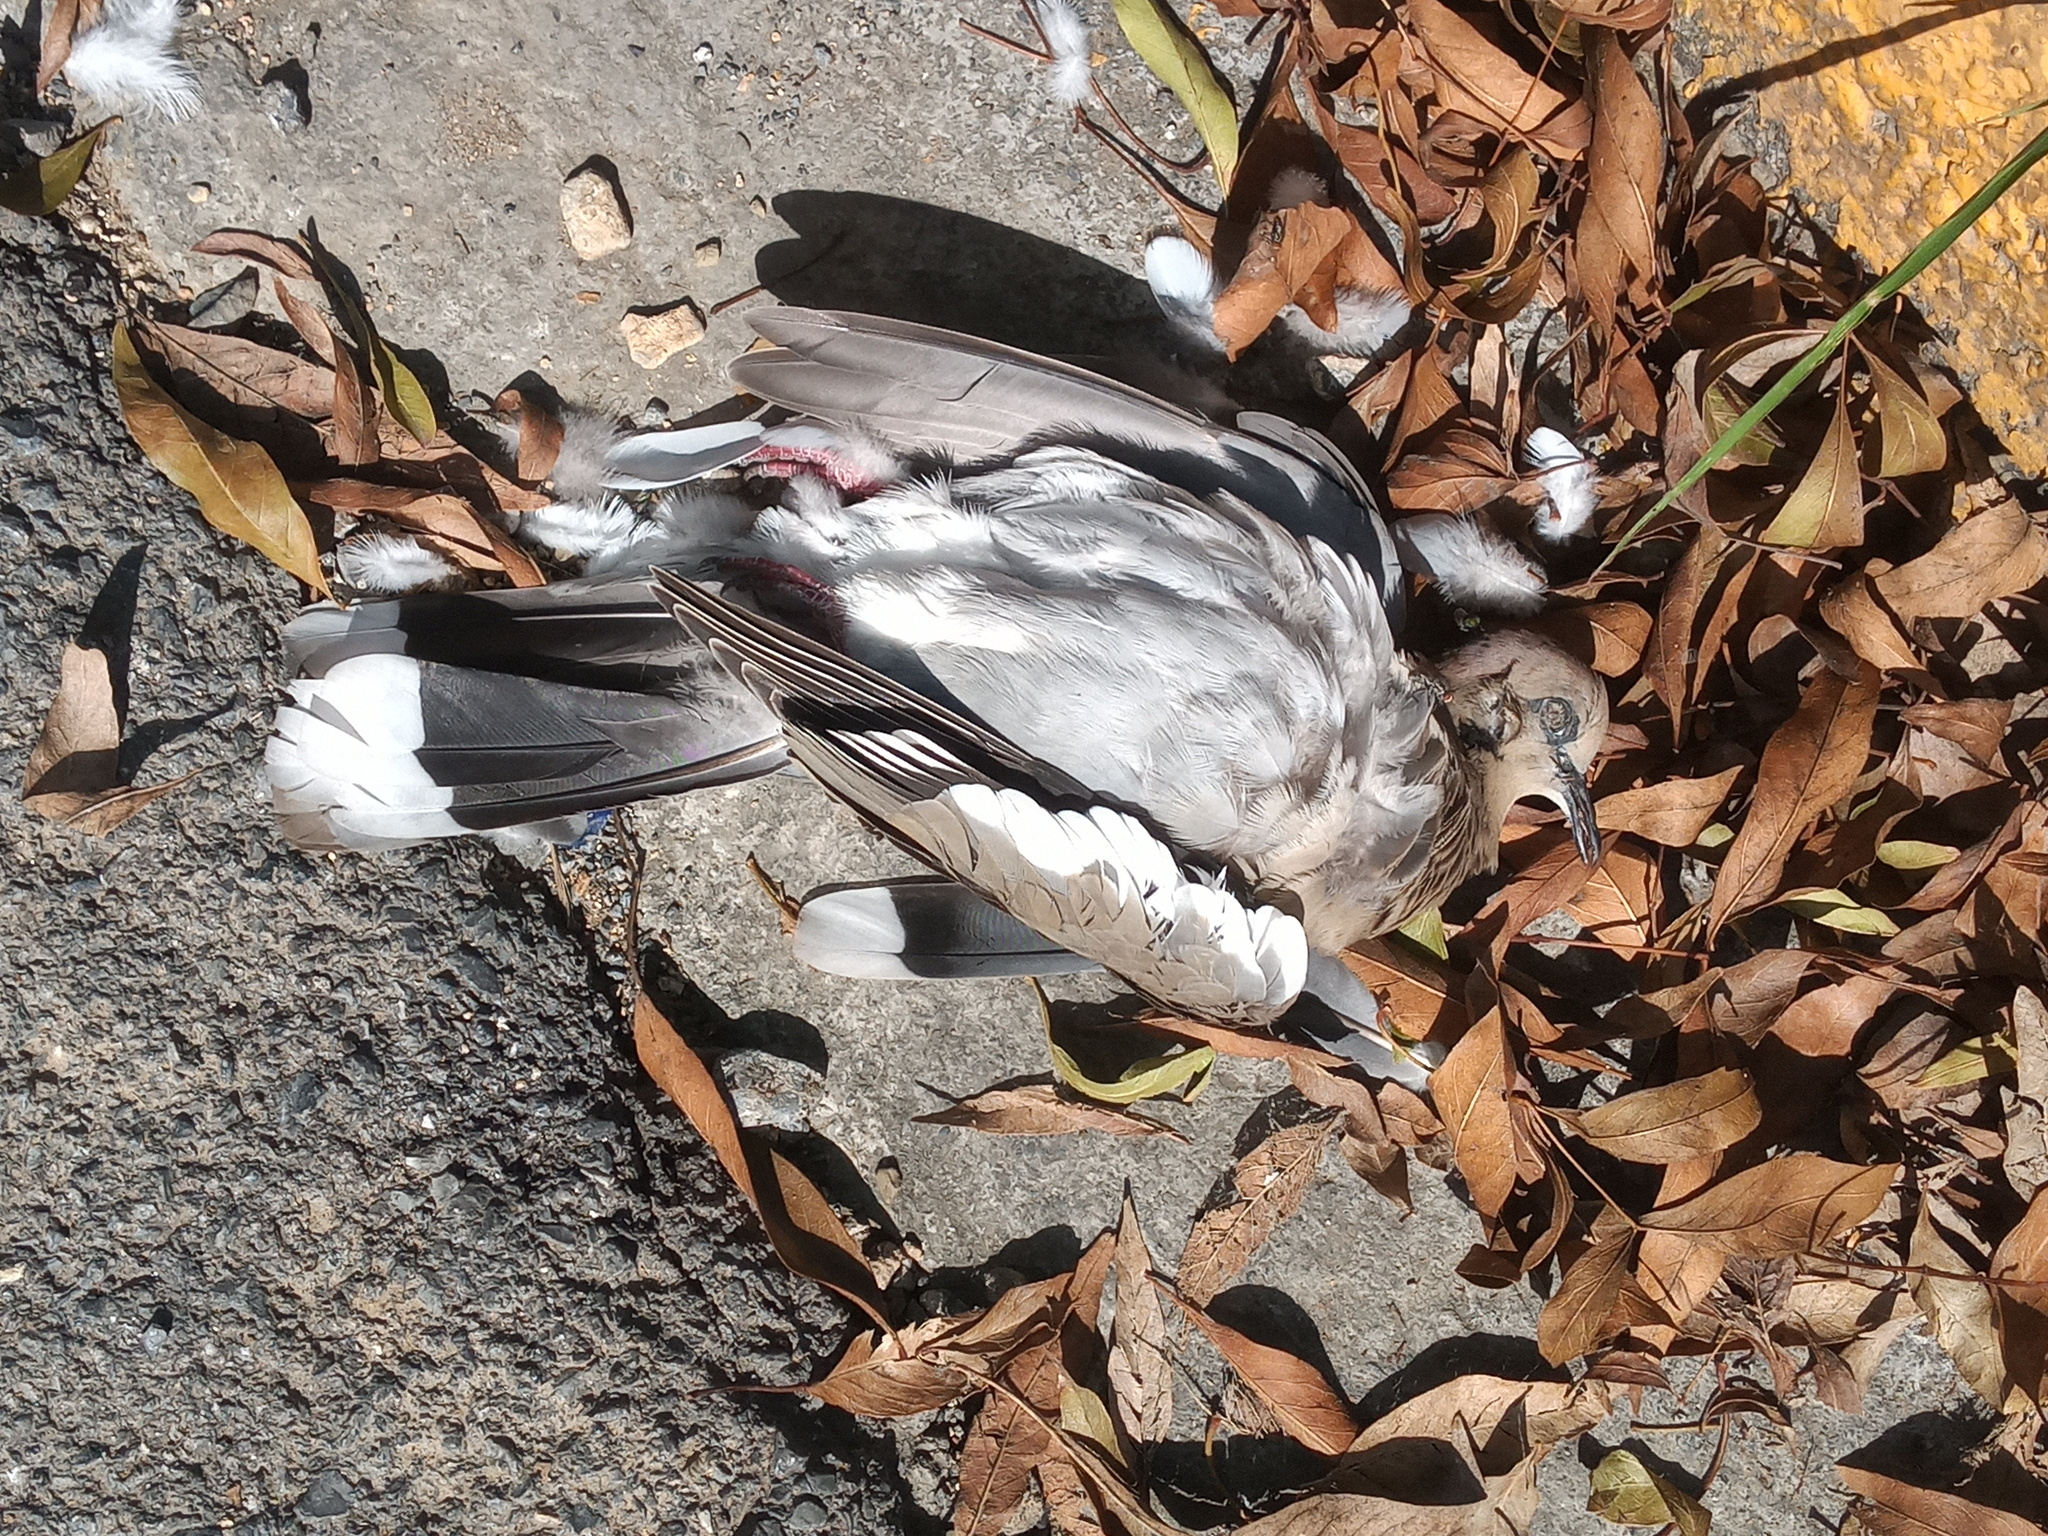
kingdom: Animalia
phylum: Chordata
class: Aves
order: Columbiformes
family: Columbidae
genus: Zenaida
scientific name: Zenaida asiatica
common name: White-winged dove
